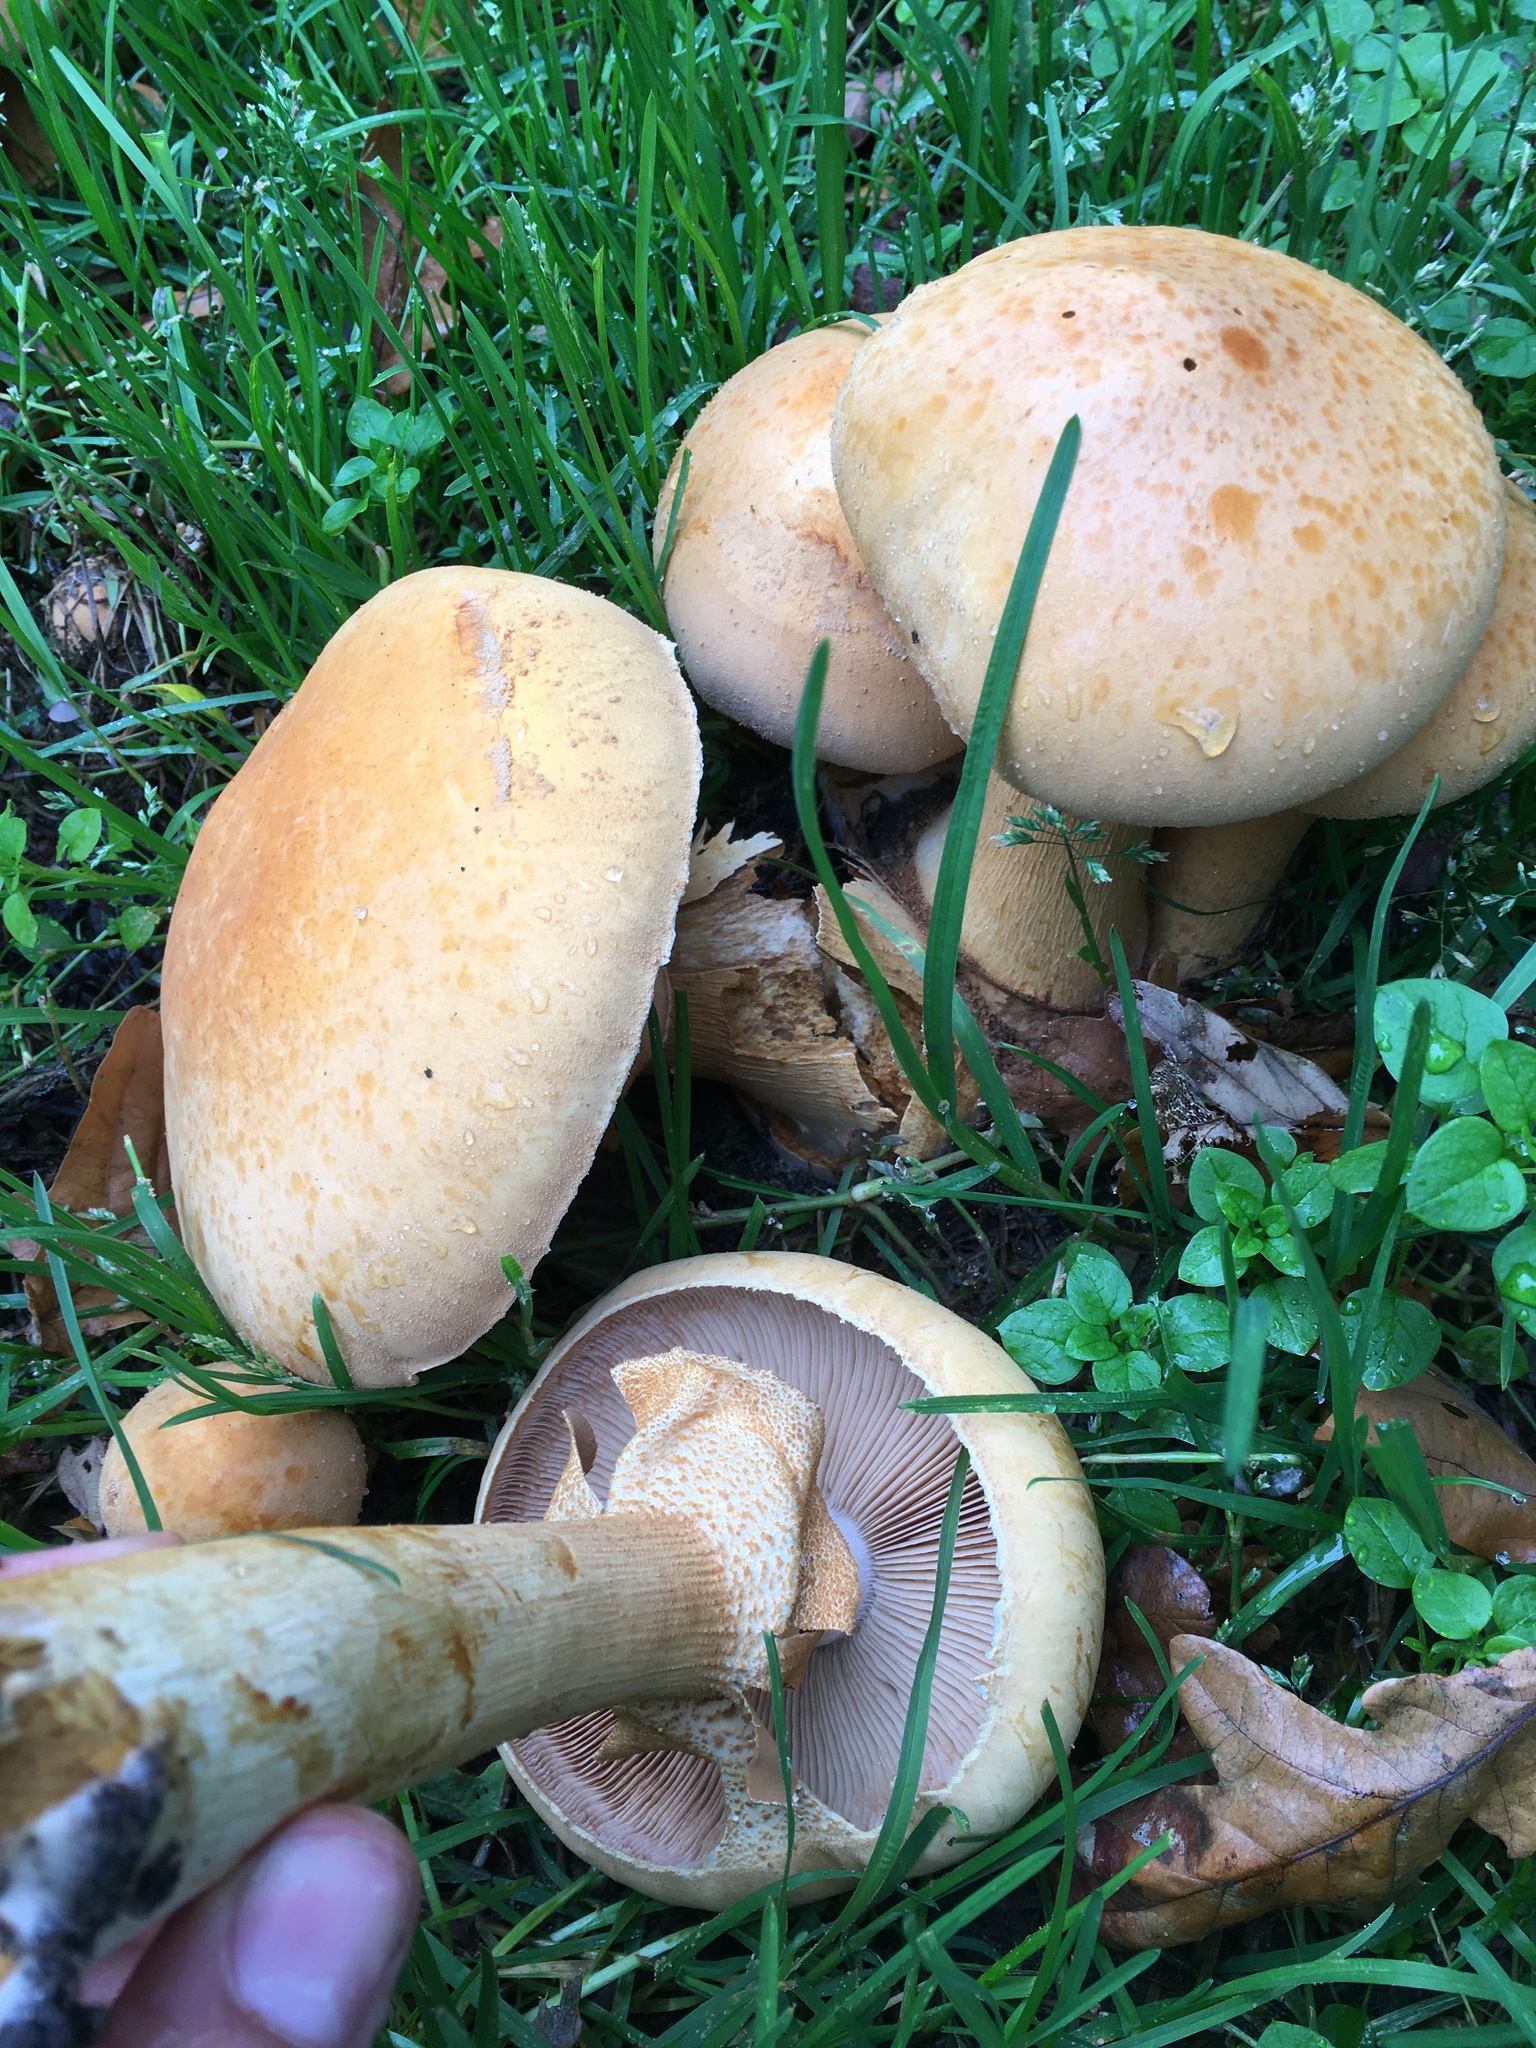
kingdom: Fungi
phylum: Basidiomycota
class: Agaricomycetes
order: Agaricales
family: Tricholomataceae
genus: Phaeolepiota
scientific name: Phaeolepiota aurea
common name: Golden bootleg
